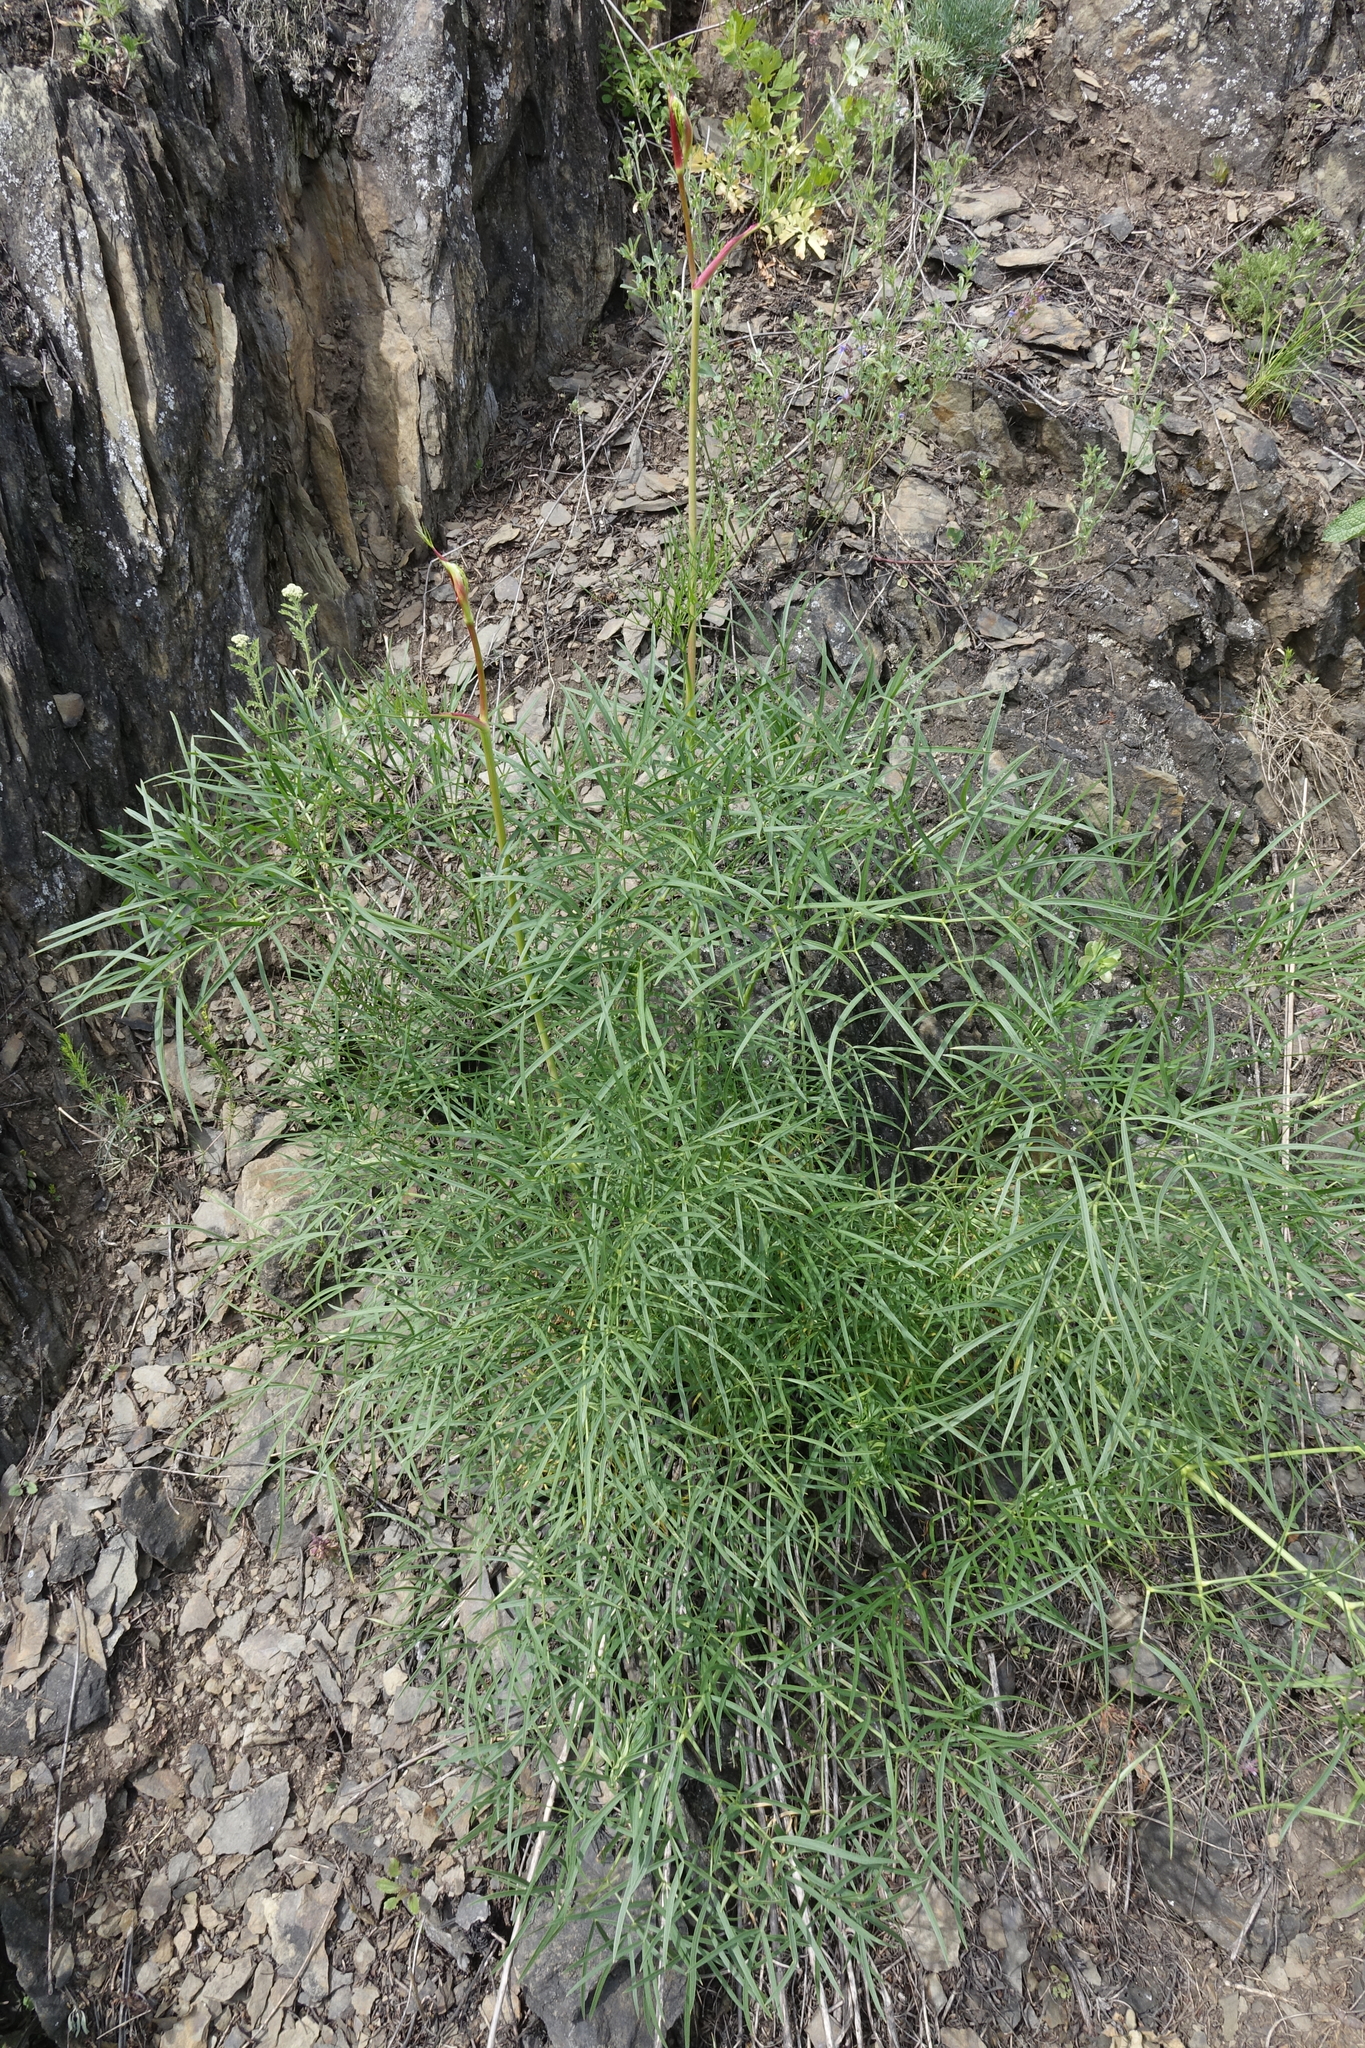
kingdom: Plantae
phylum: Tracheophyta
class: Magnoliopsida
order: Apiales
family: Apiaceae
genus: Peucedanum
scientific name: Peucedanum morisonii
